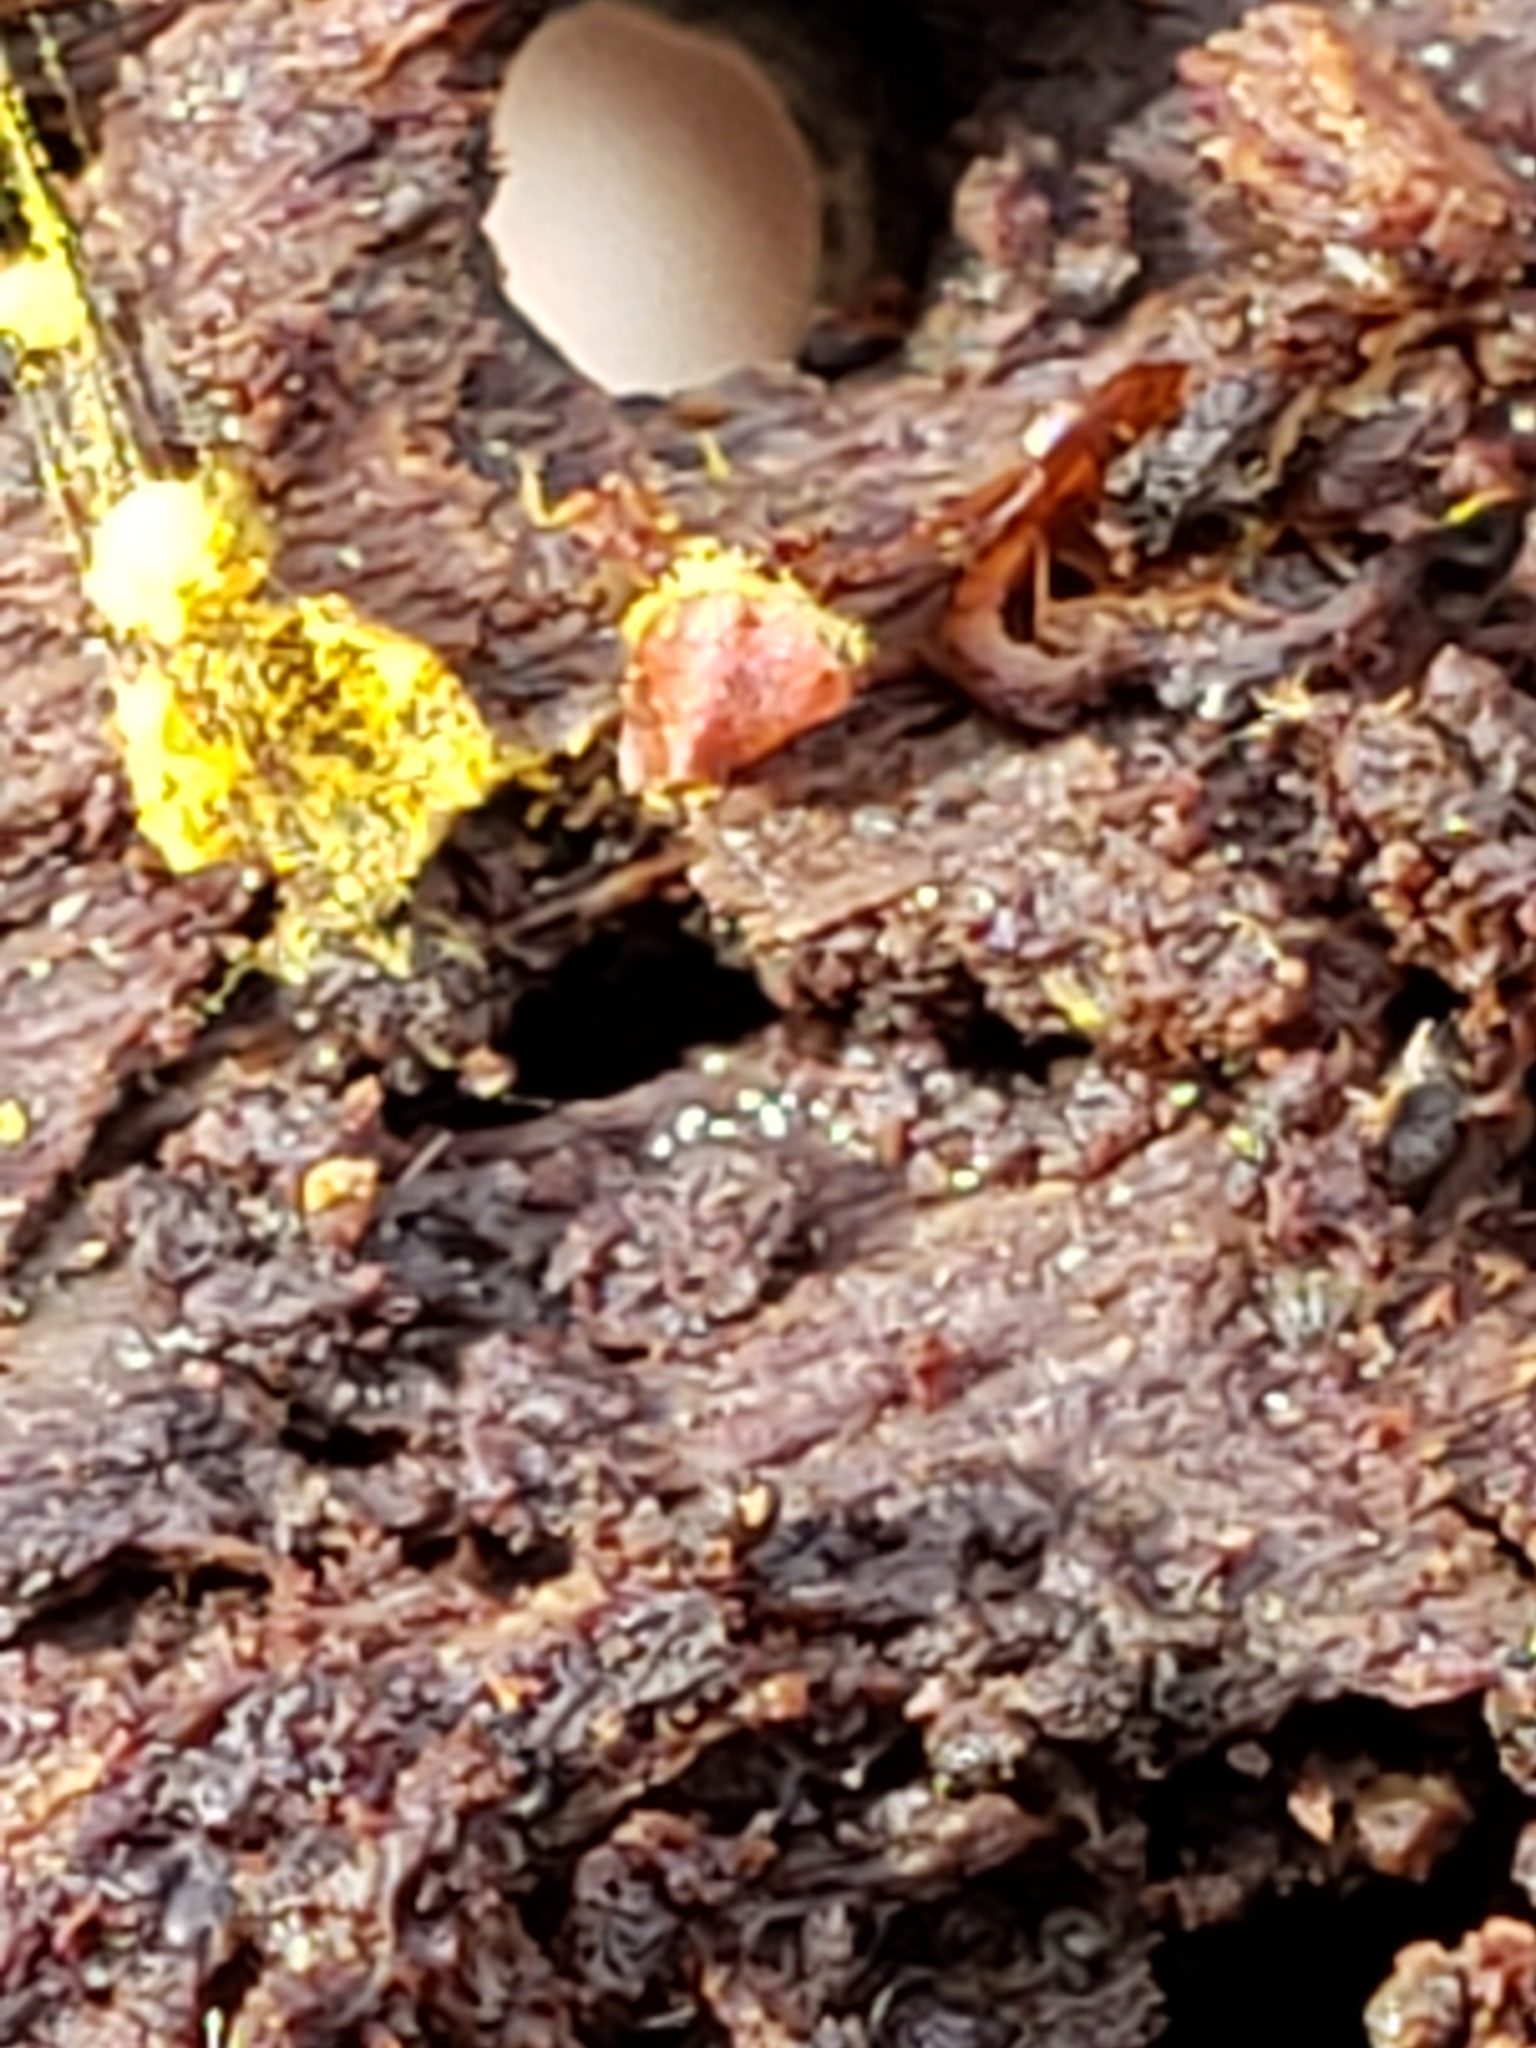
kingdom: Protozoa
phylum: Mycetozoa
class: Myxomycetes
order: Trichiales
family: Trichiaceae
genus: Perichaena
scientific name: Perichaena depressa
